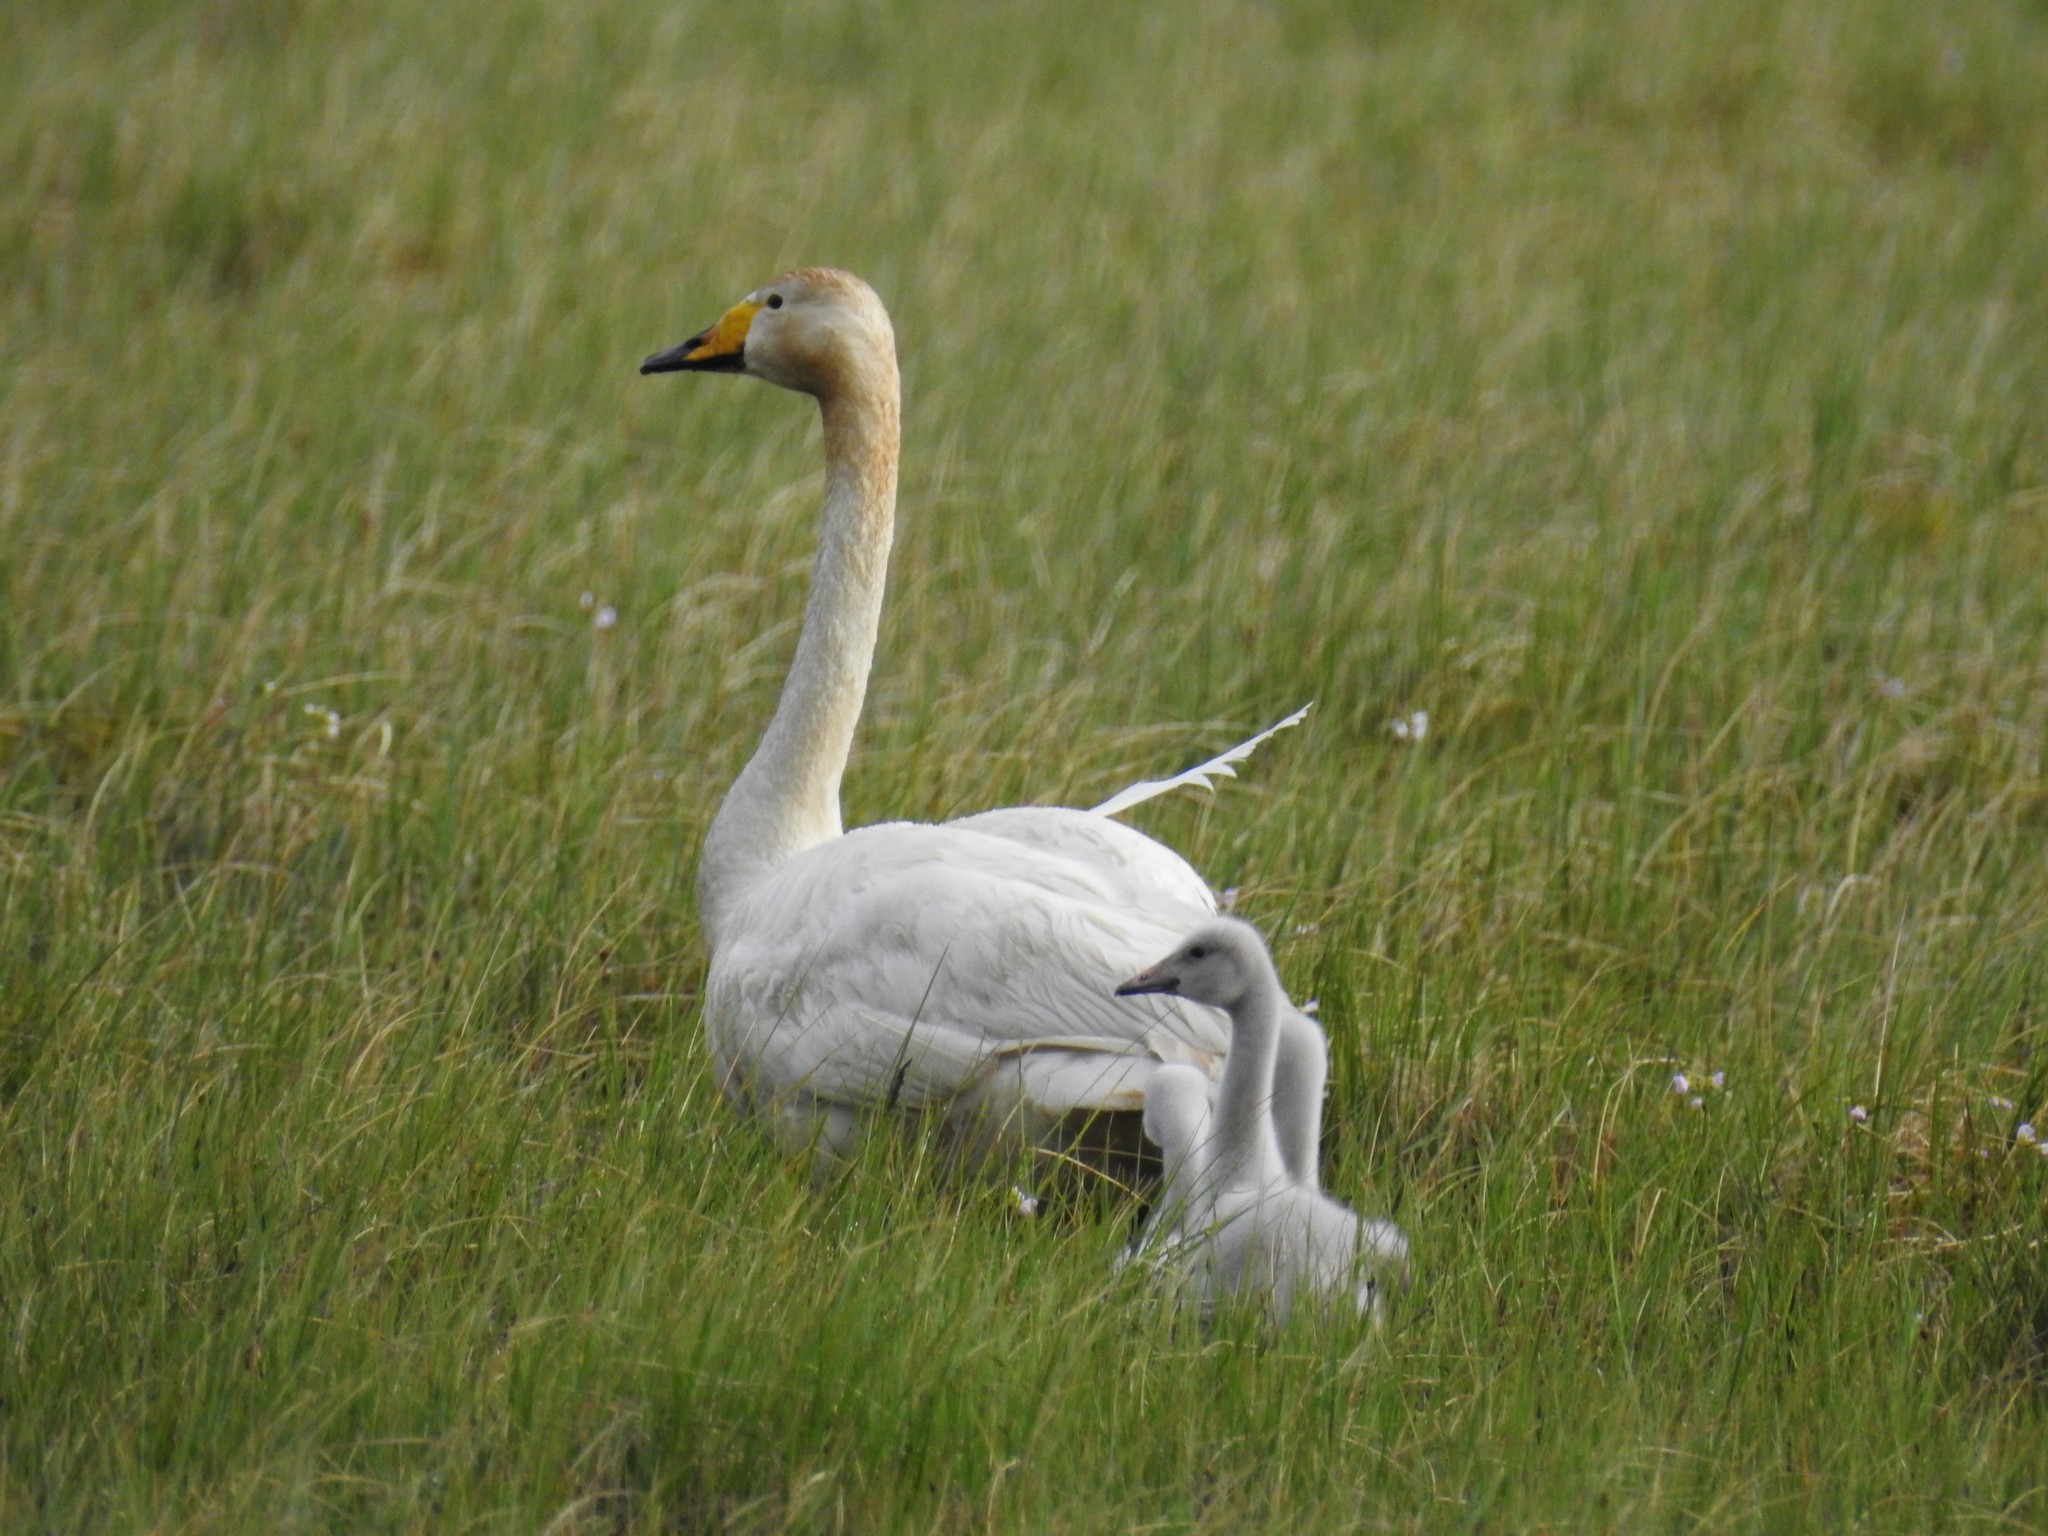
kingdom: Animalia
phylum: Chordata
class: Aves
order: Anseriformes
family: Anatidae
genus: Cygnus
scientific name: Cygnus cygnus
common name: Whooper swan
